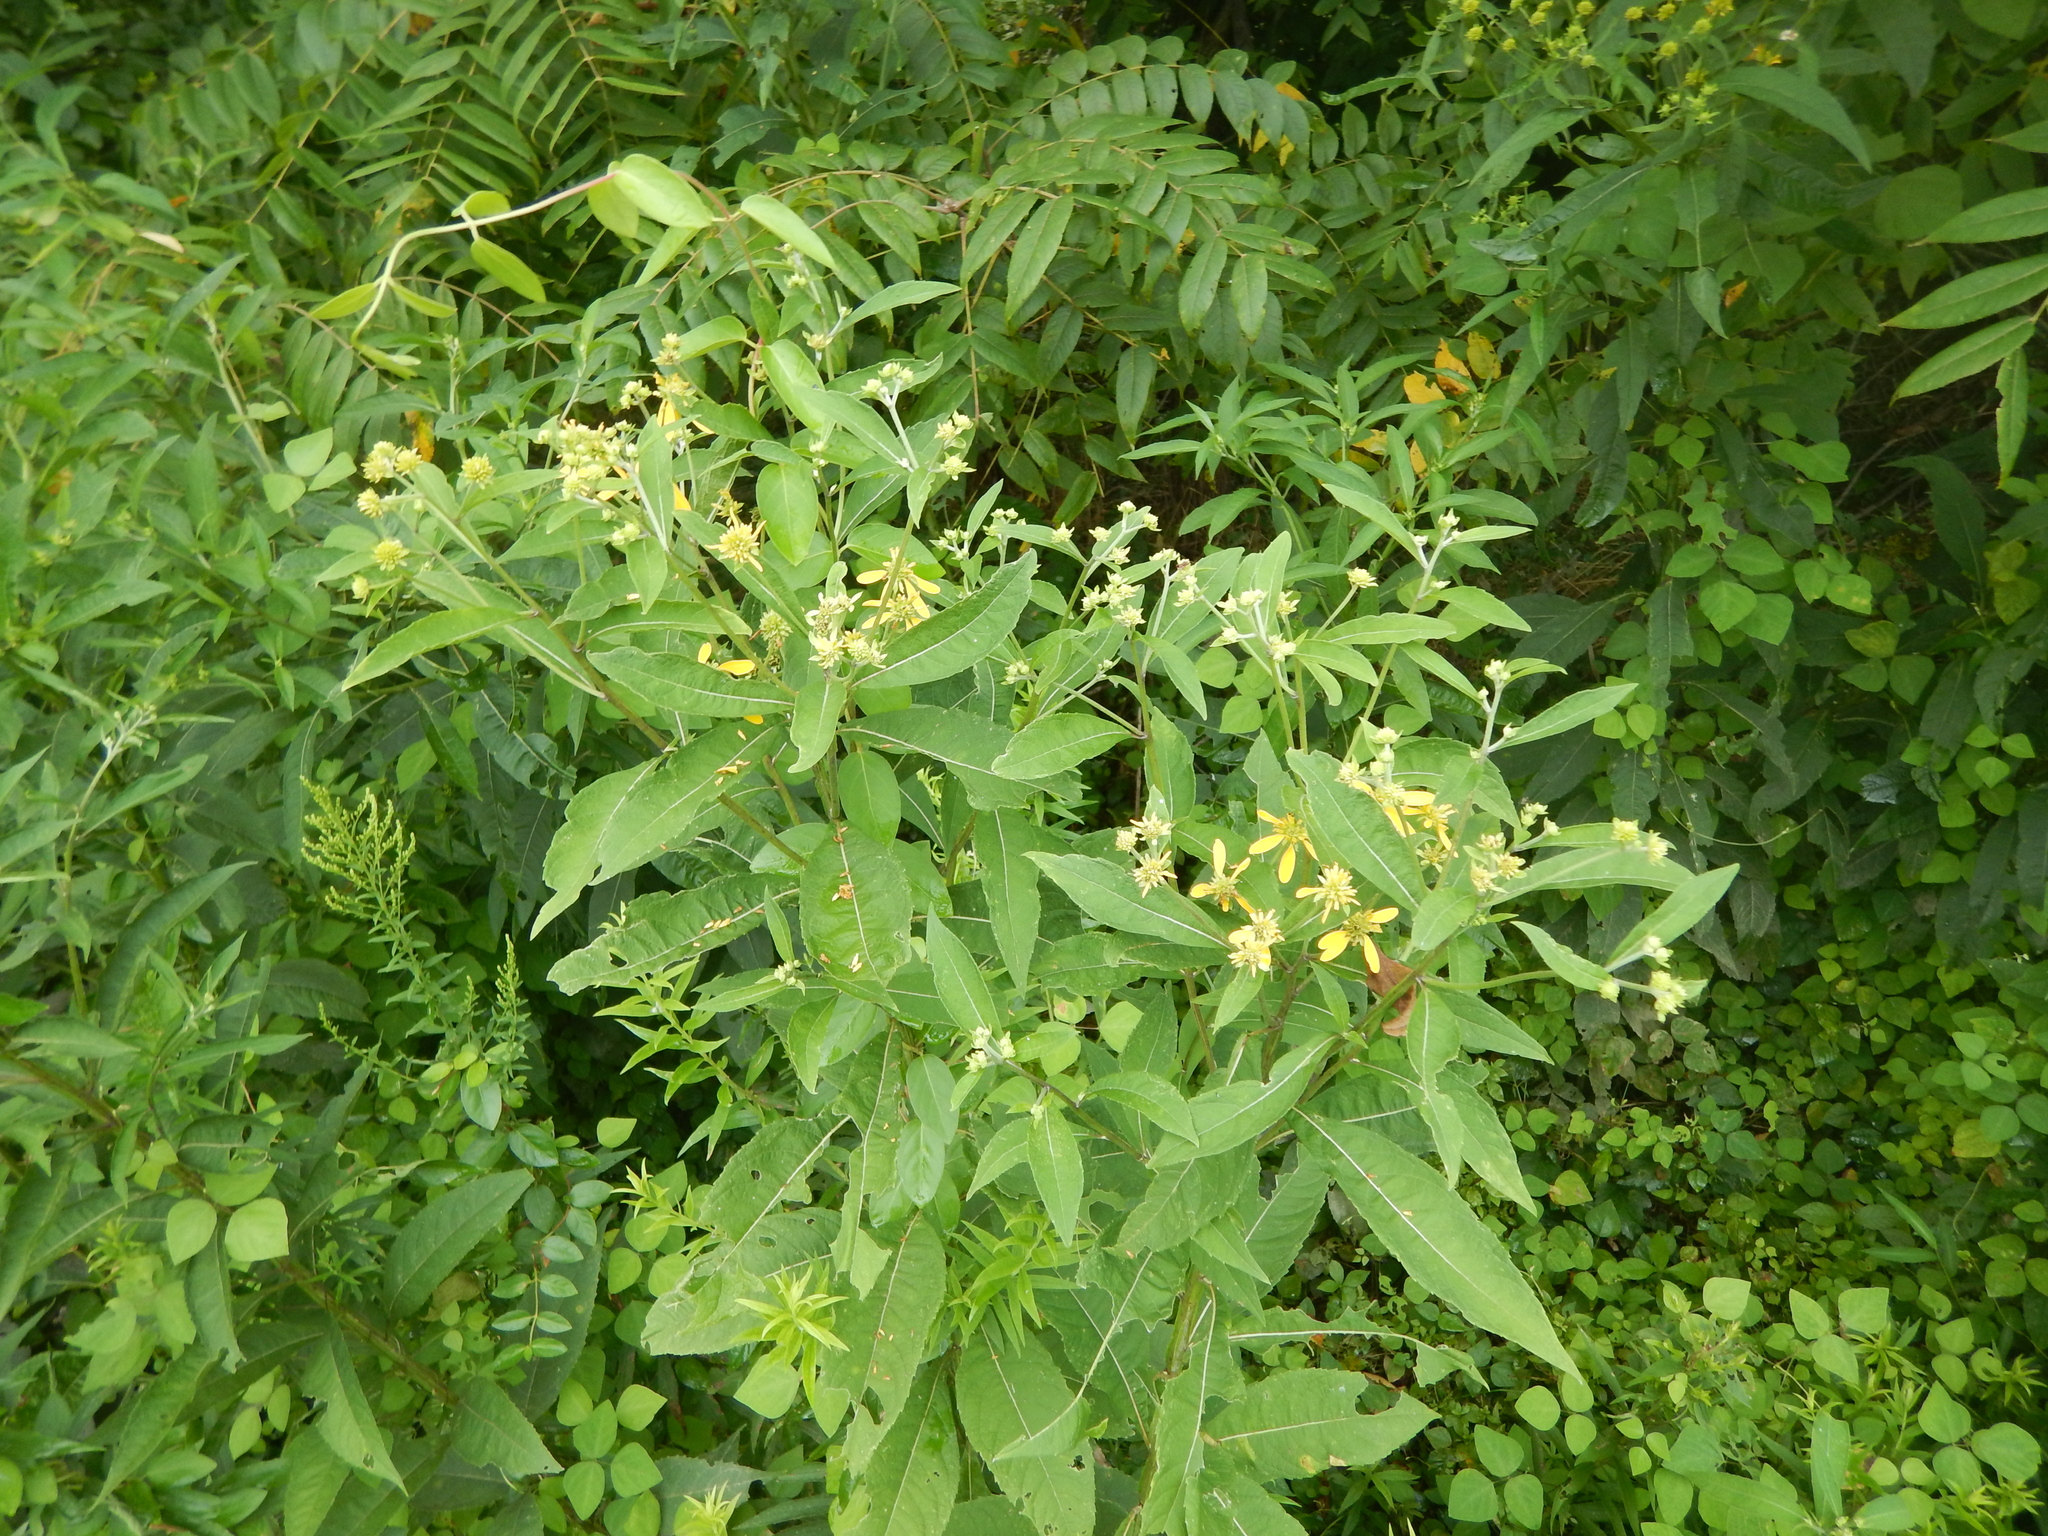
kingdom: Plantae
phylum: Tracheophyta
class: Magnoliopsida
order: Asterales
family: Asteraceae
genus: Verbesina
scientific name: Verbesina alternifolia
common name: Wingstem
